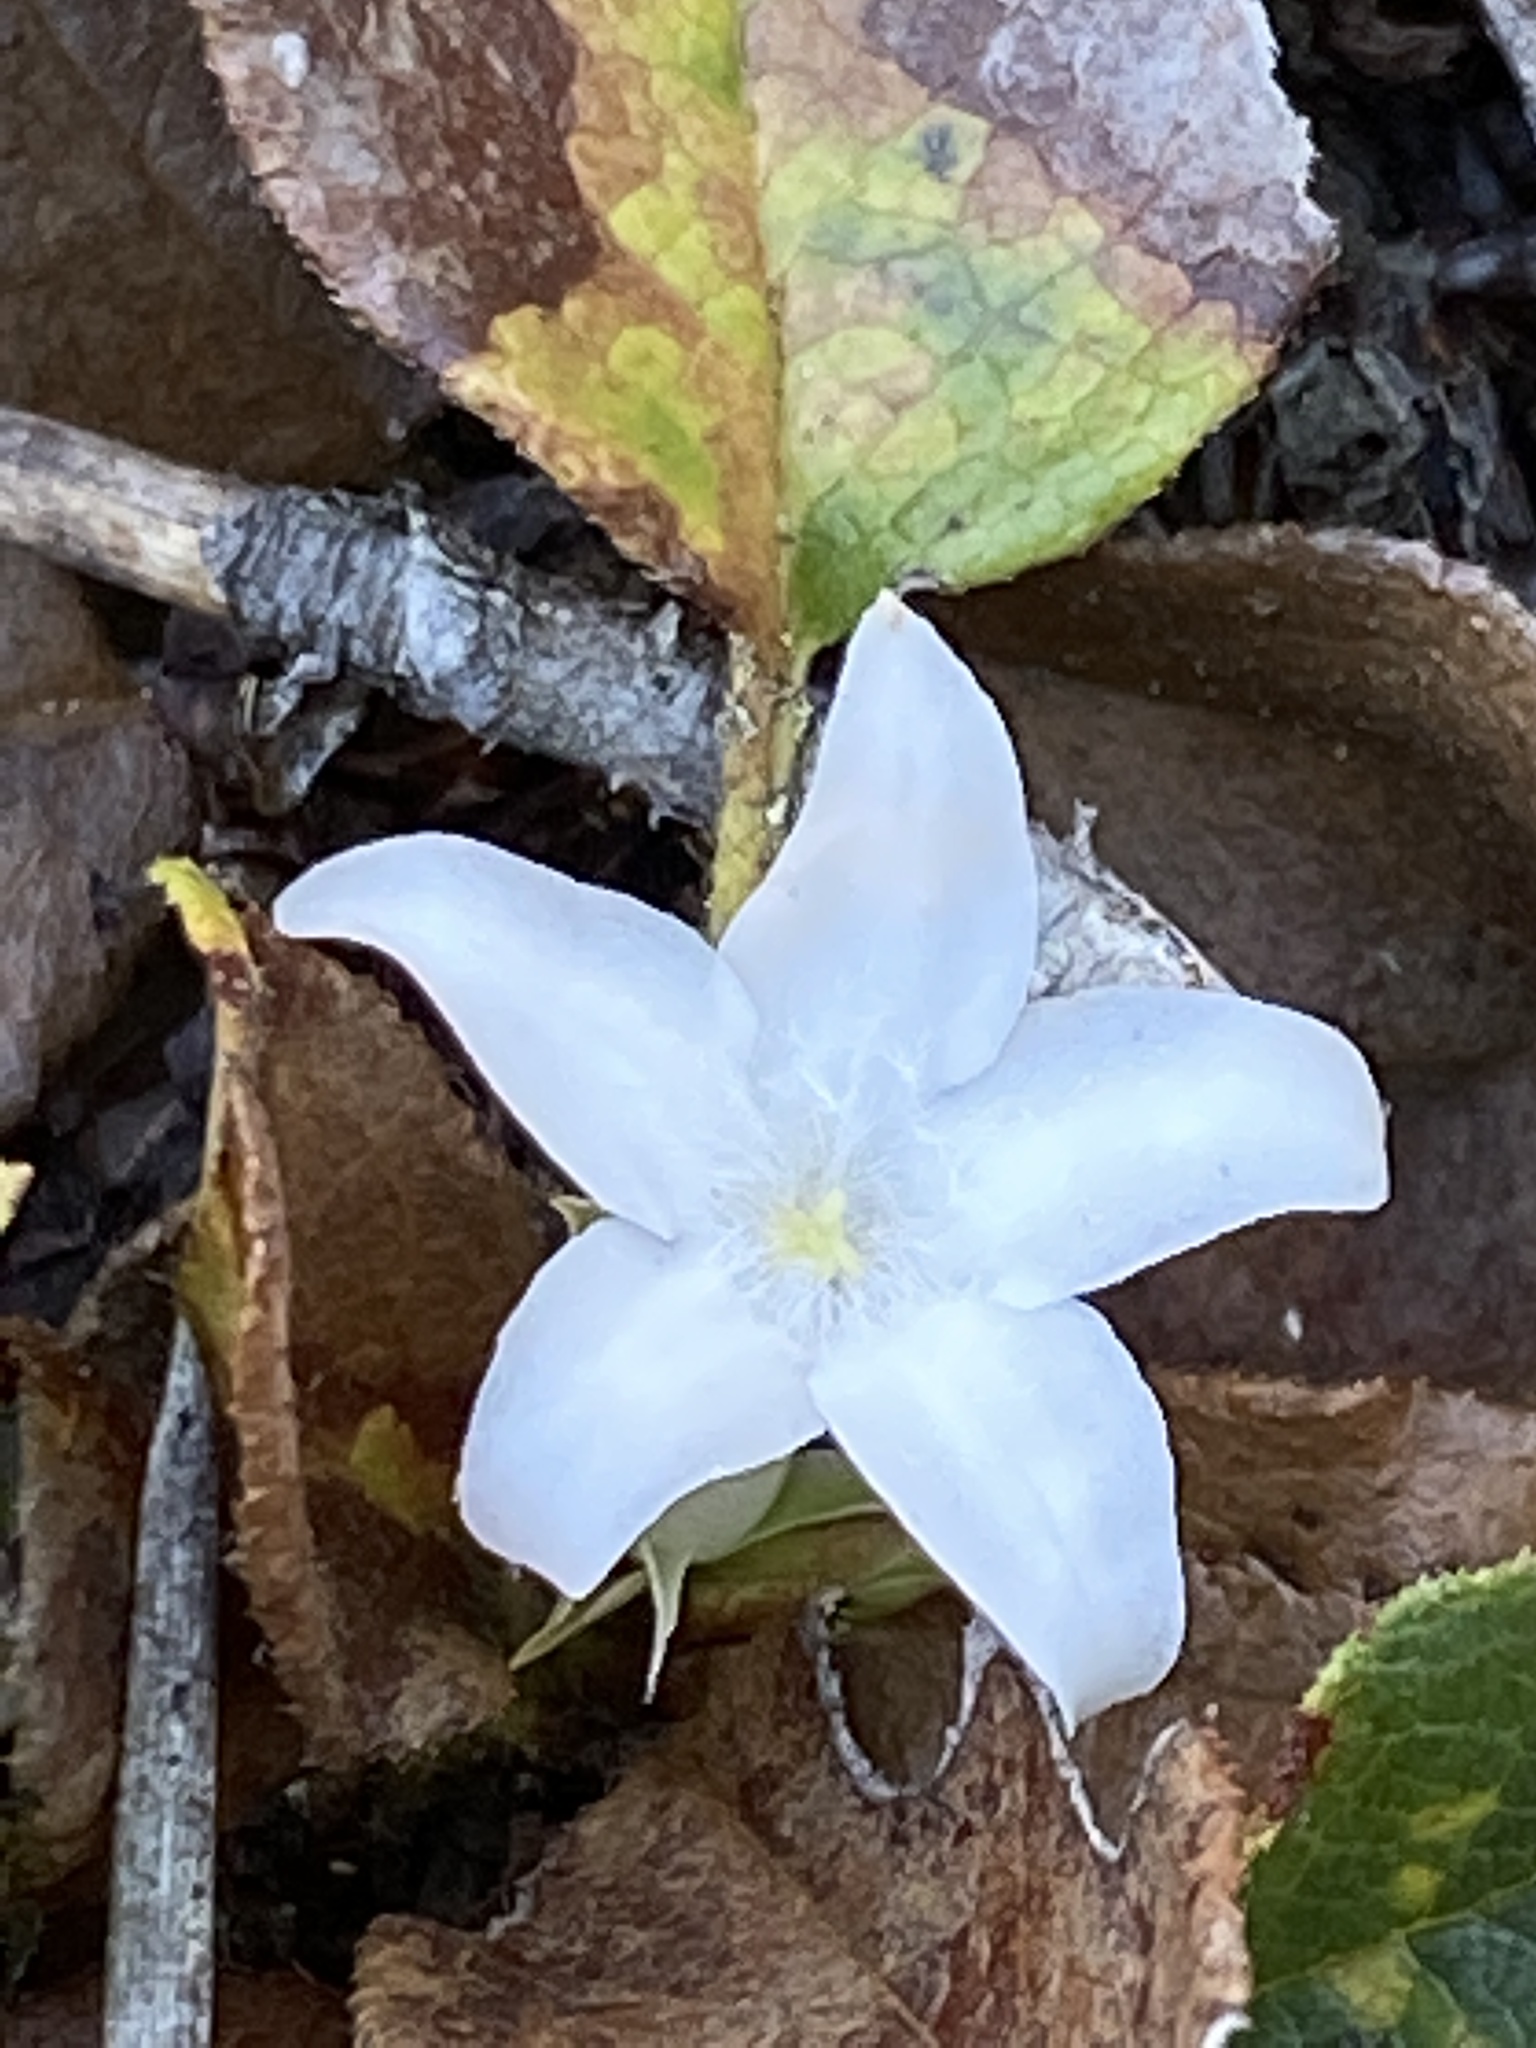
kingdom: Plantae
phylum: Tracheophyta
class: Magnoliopsida
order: Ericales
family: Ericaceae
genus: Epigaea
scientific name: Epigaea repens
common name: Gravelroot
